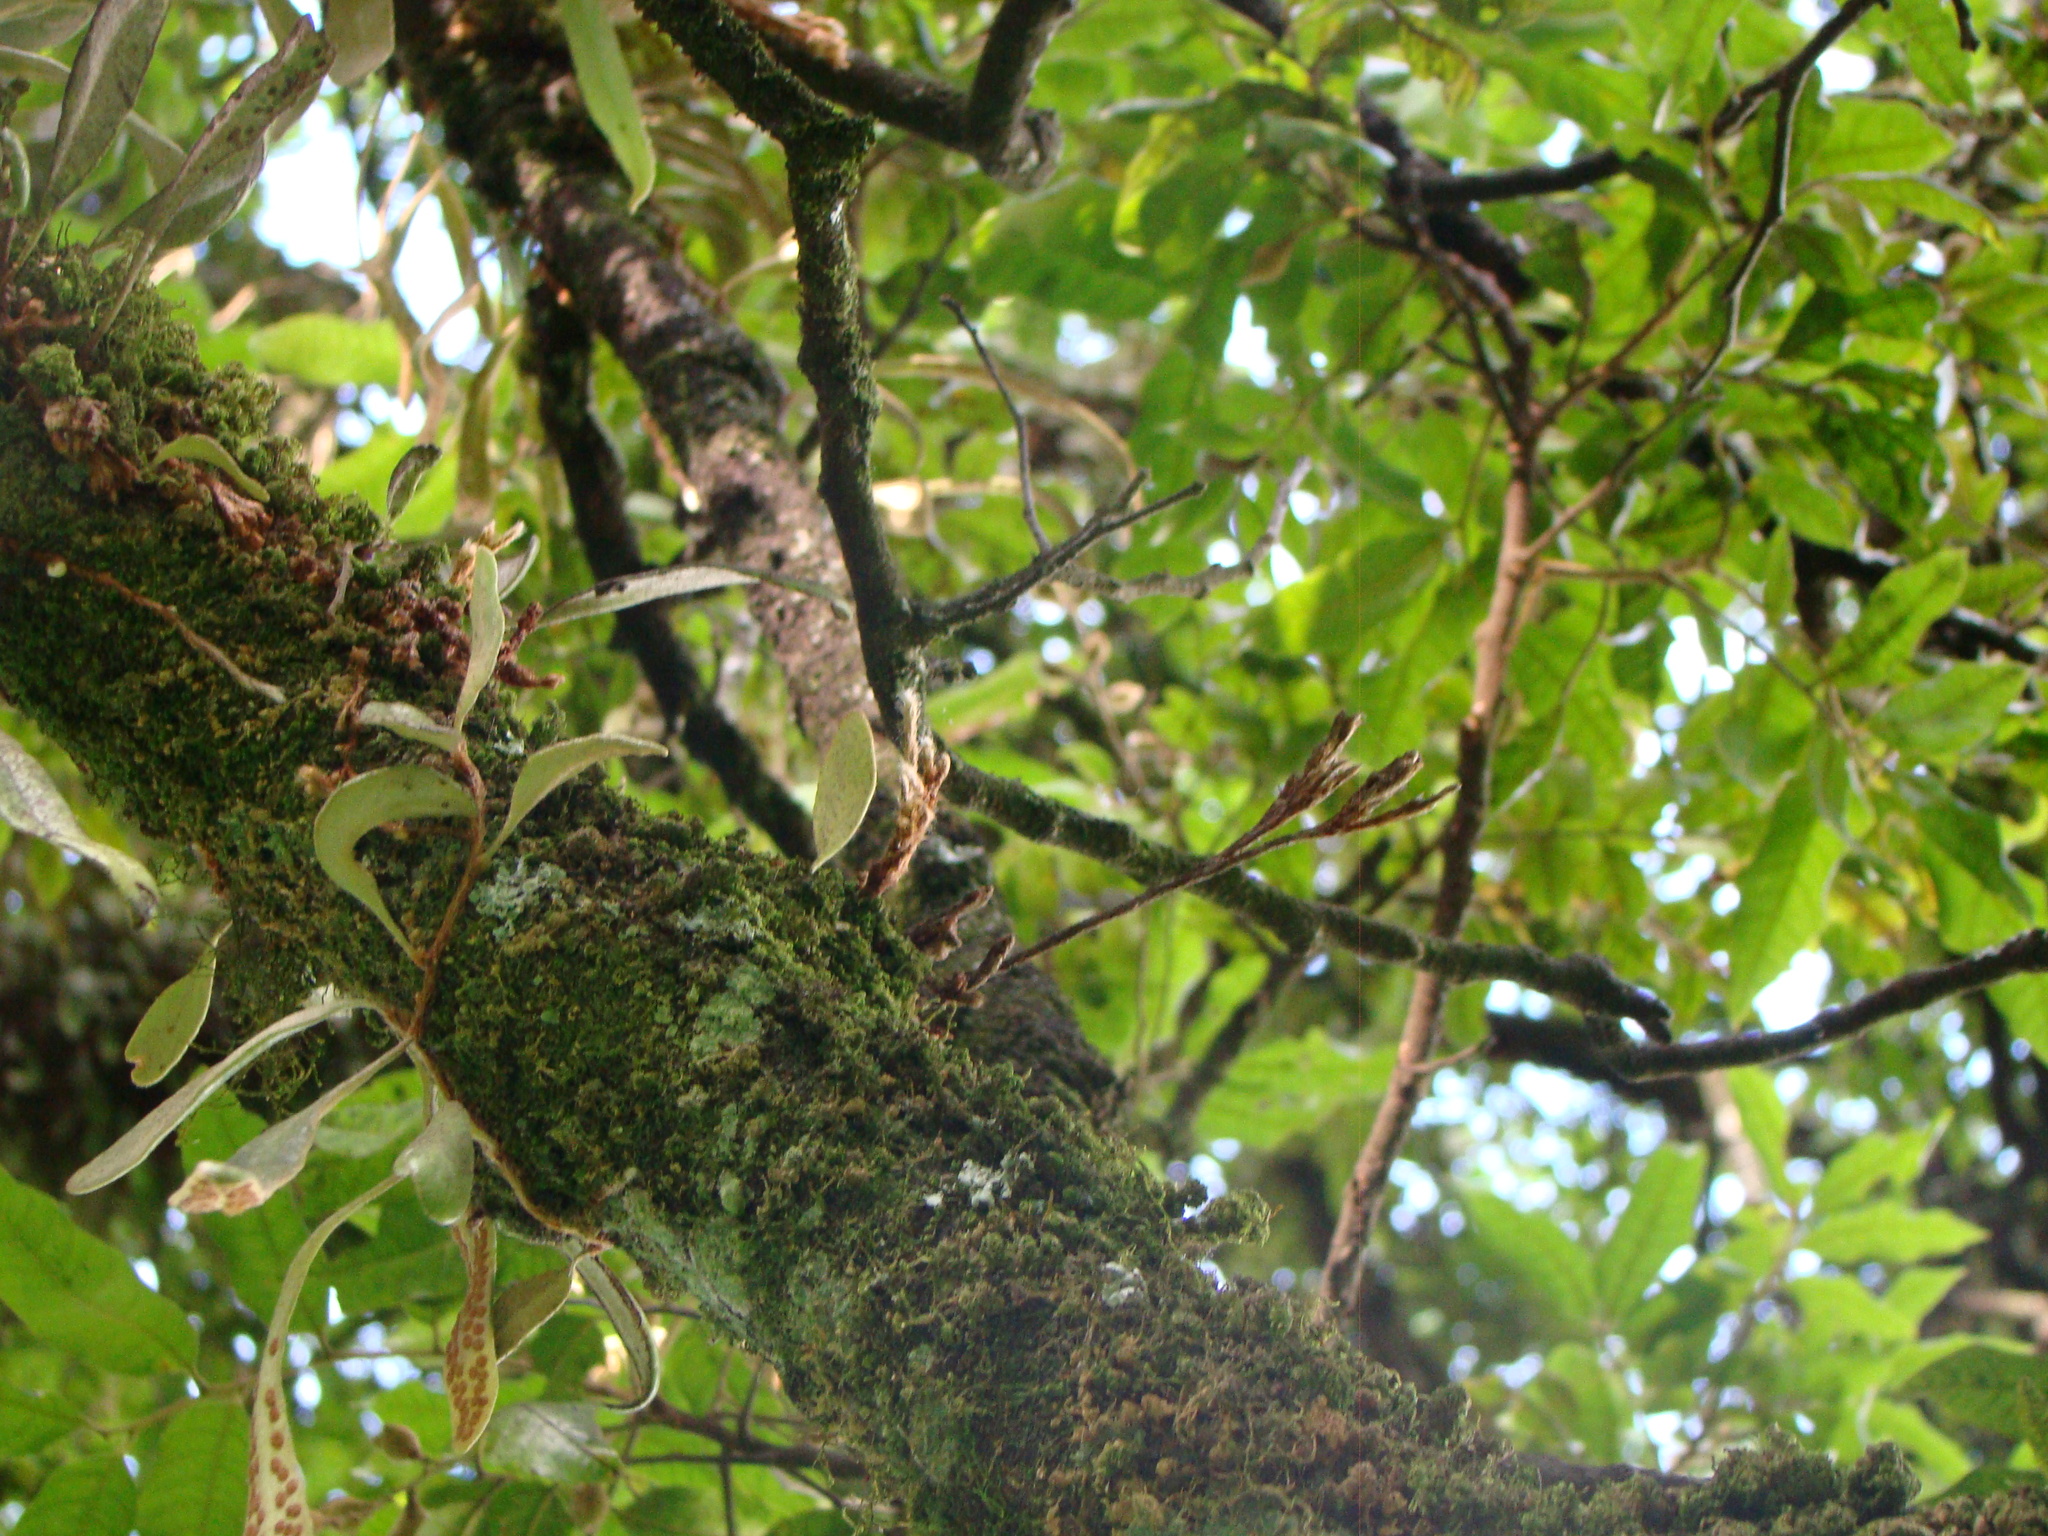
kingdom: Animalia
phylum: Arthropoda
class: Arachnida
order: Trombidiformes
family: Eriophyidae
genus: Acerimina
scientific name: Acerimina pyrrosiae
